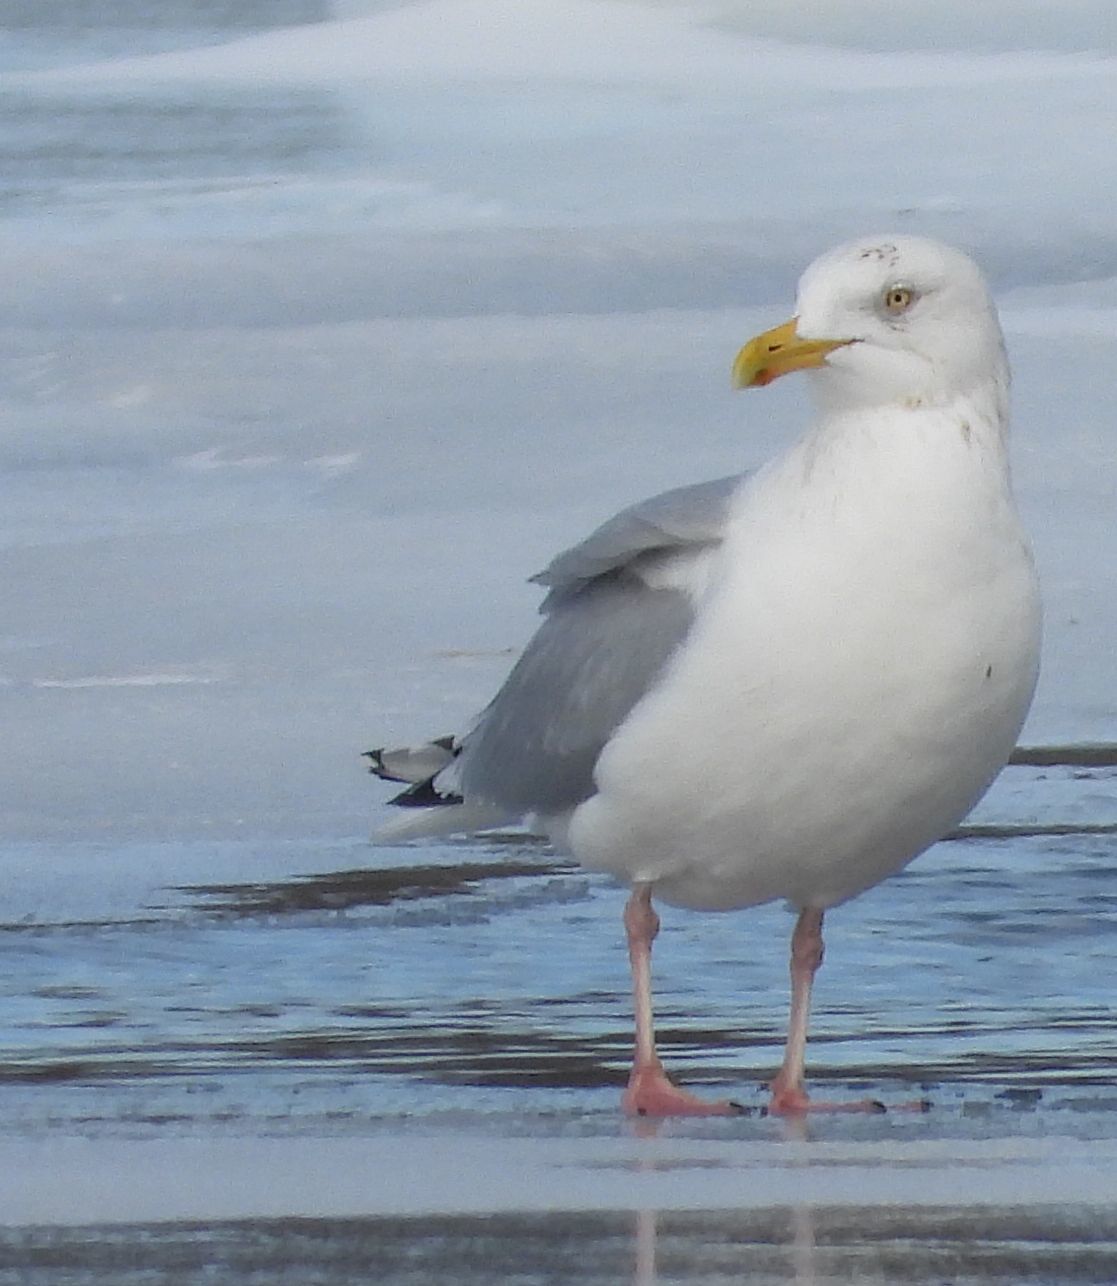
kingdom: Animalia
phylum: Chordata
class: Aves
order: Charadriiformes
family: Laridae
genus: Larus
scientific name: Larus argentatus
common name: Herring gull
